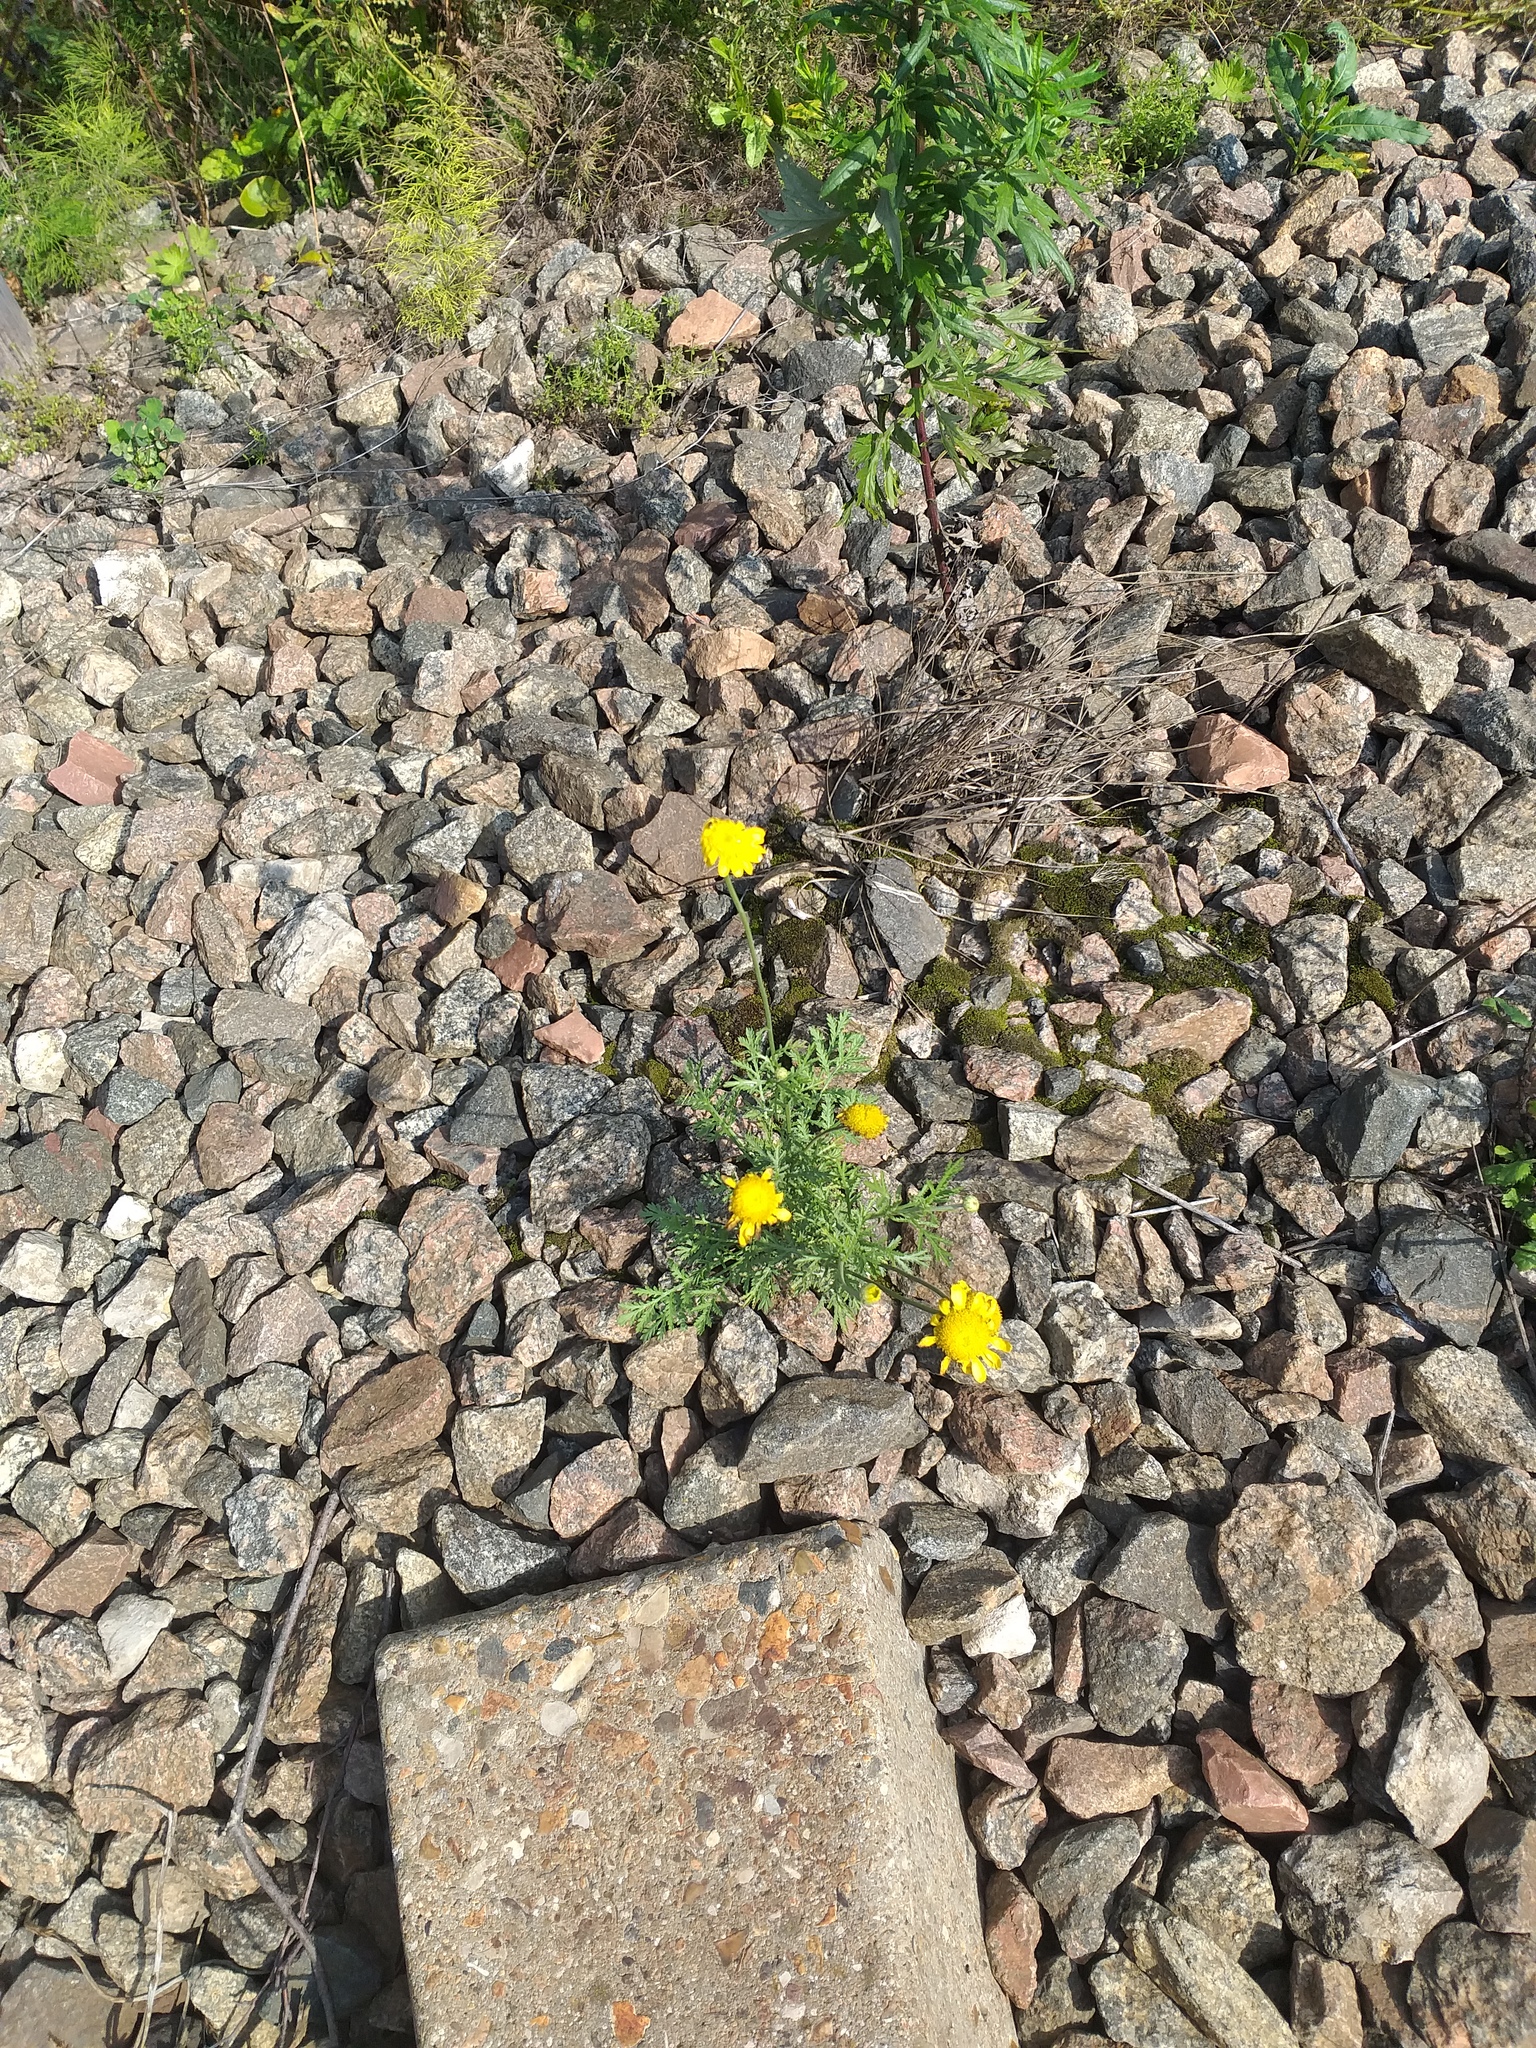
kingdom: Plantae
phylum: Tracheophyta
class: Magnoliopsida
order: Asterales
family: Asteraceae
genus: Cota
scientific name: Cota tinctoria
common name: Golden chamomile
